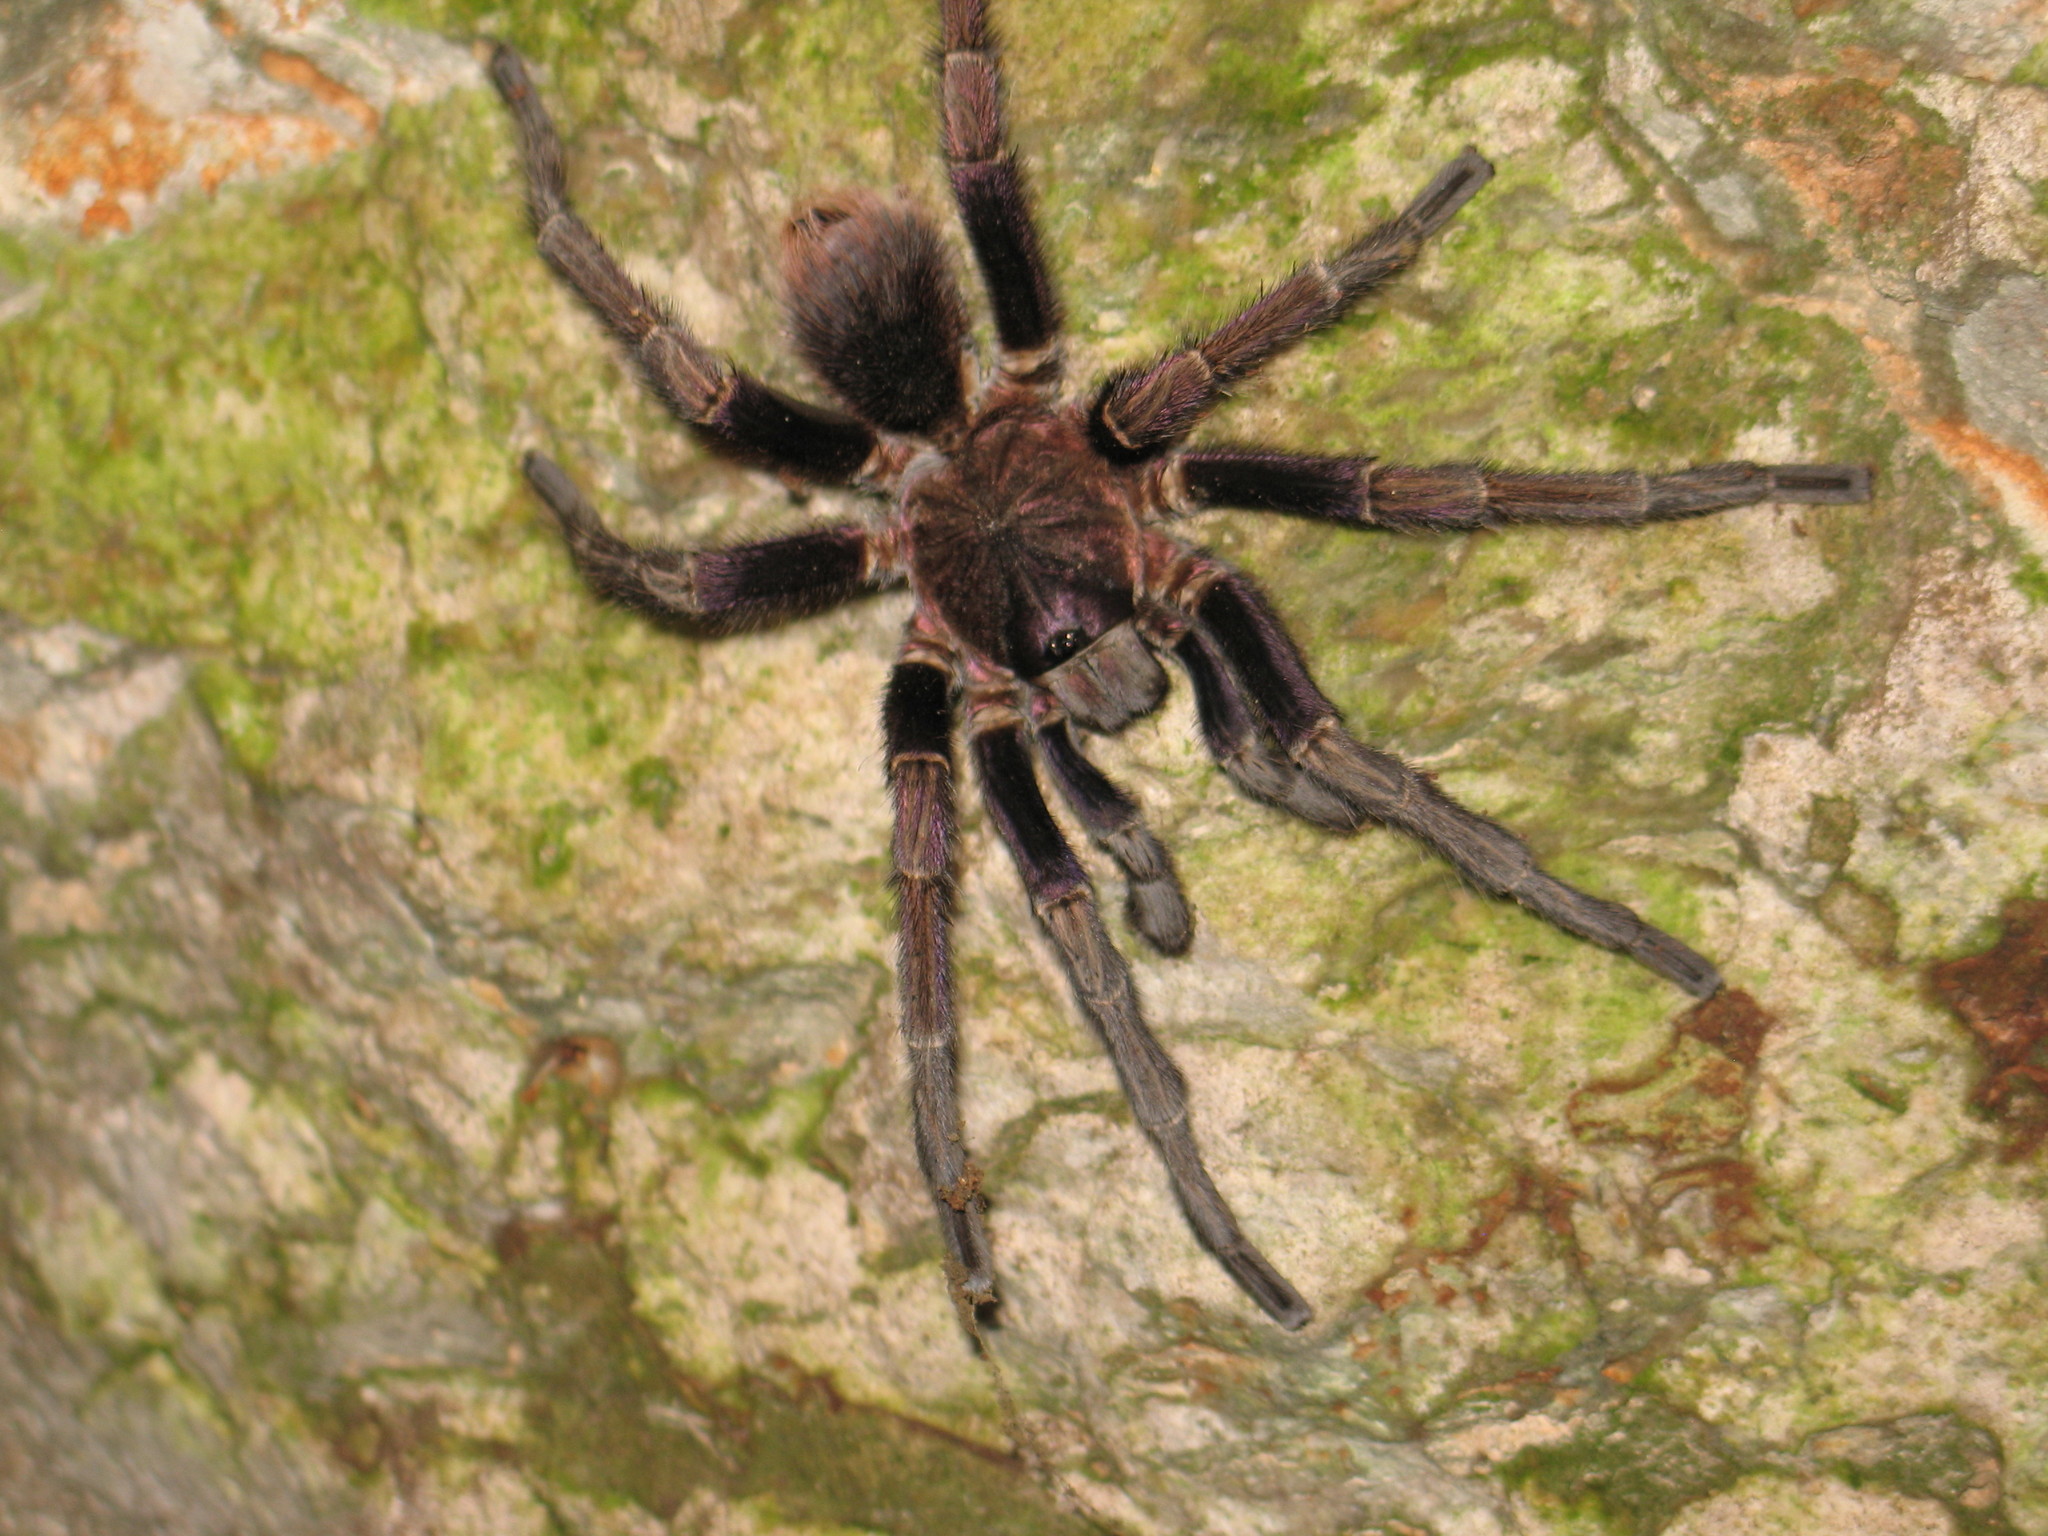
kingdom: Animalia
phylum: Arthropoda
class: Arachnida
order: Araneae
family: Theraphosidae
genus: Phormictopus
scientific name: Phormictopus cancerides
